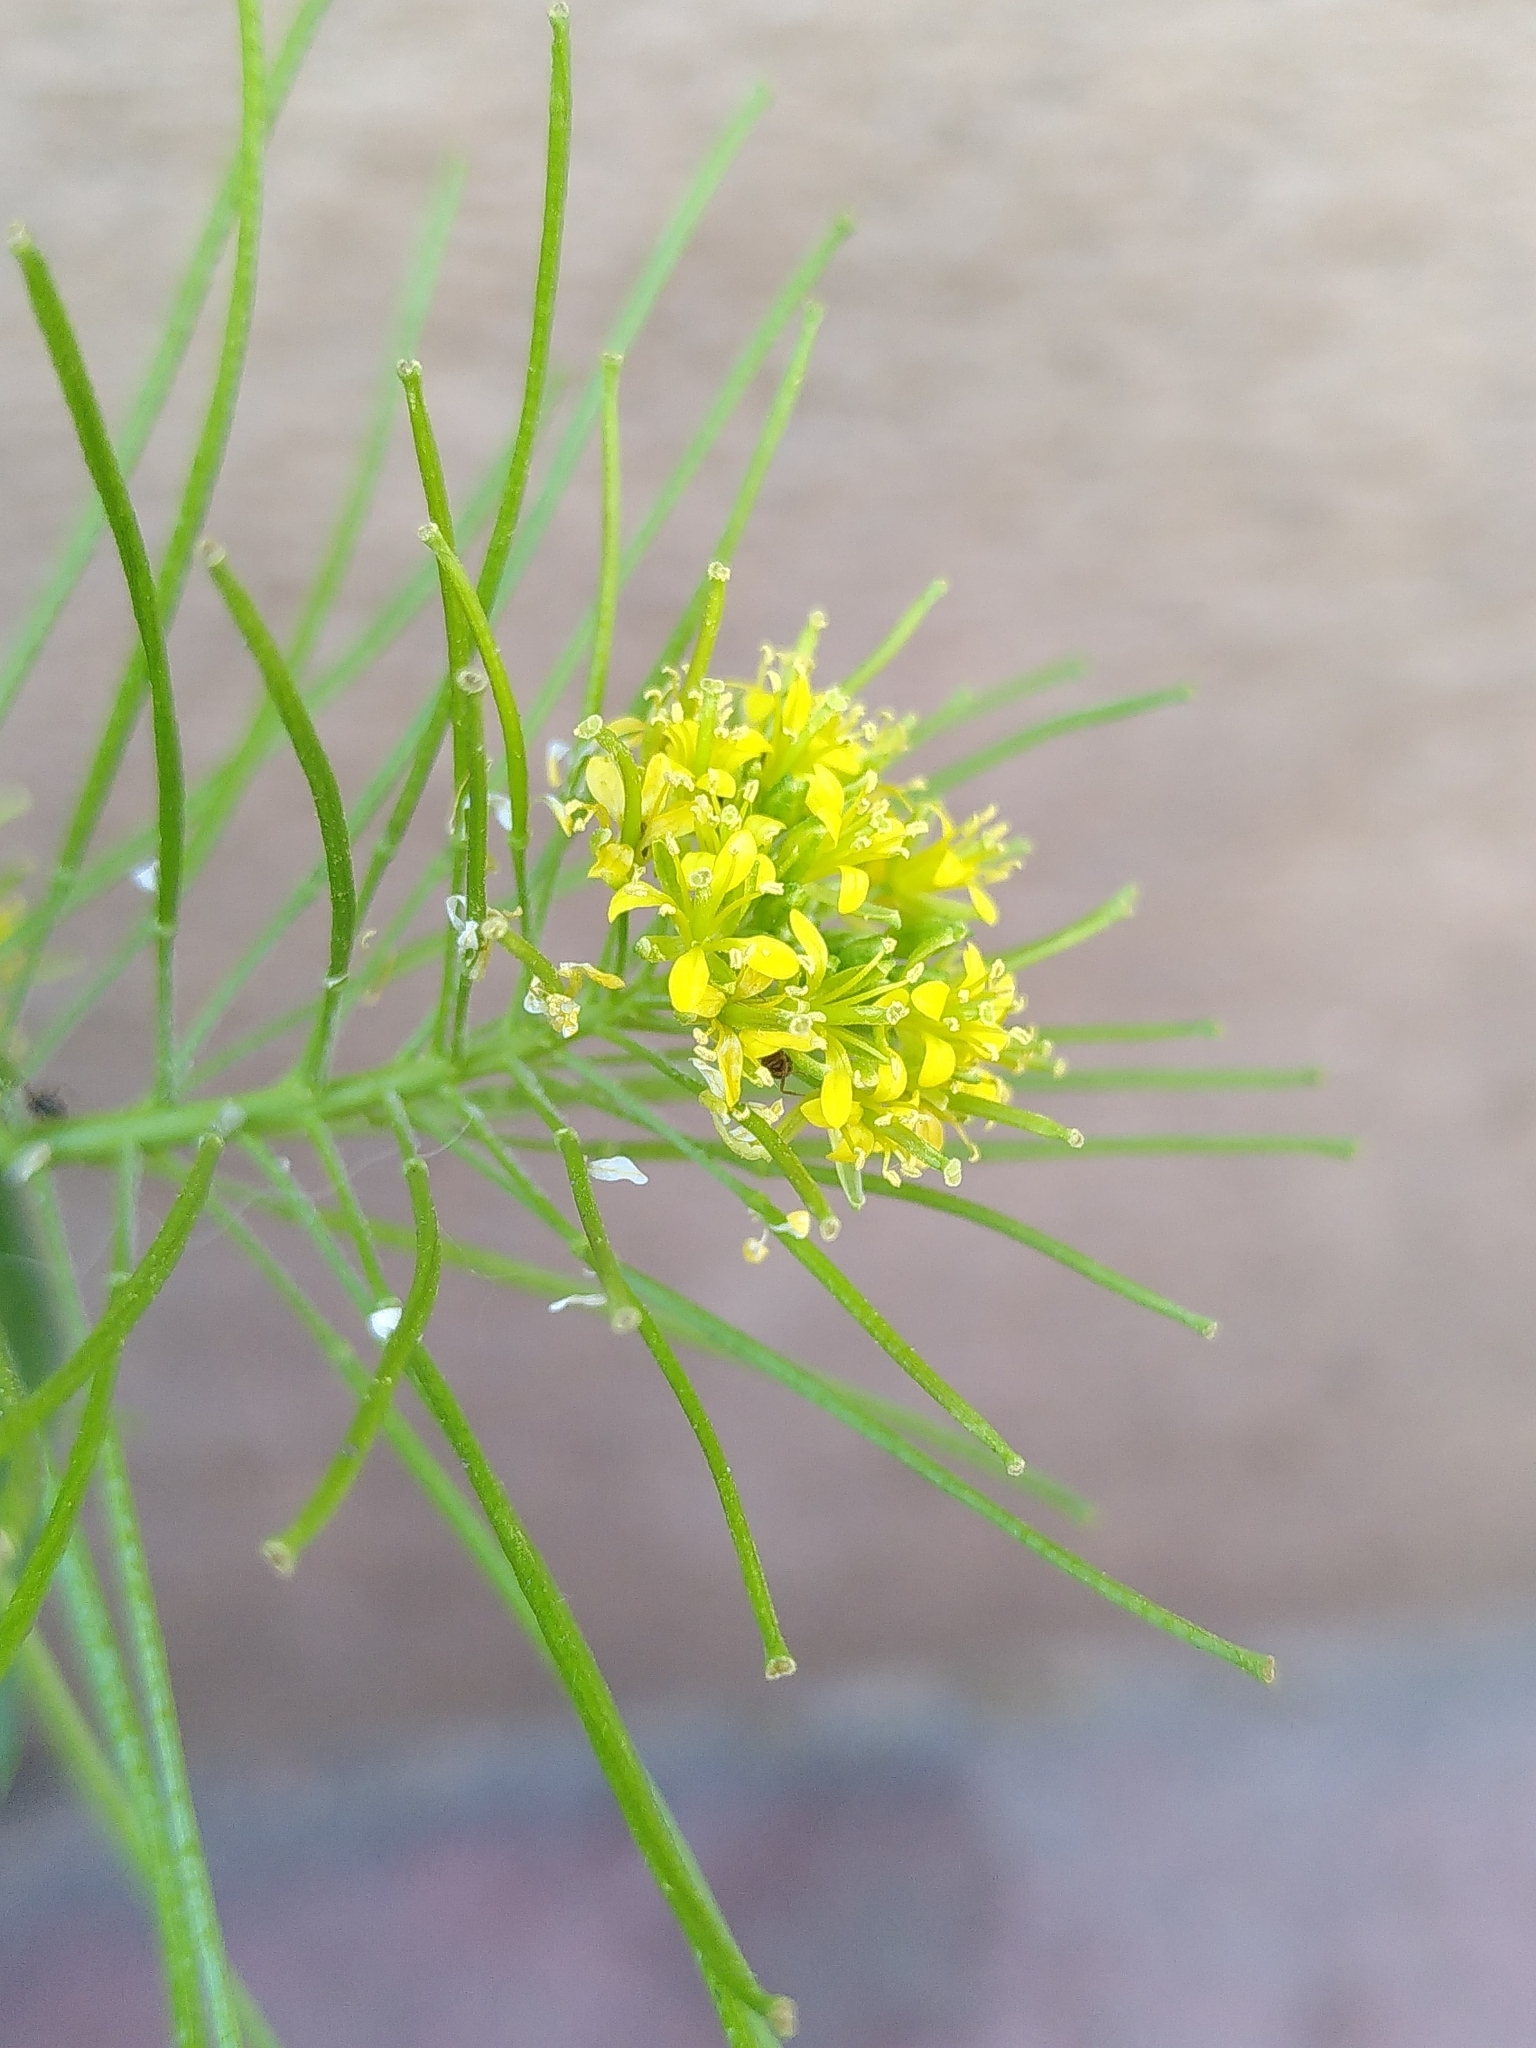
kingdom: Plantae
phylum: Tracheophyta
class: Magnoliopsida
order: Brassicales
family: Brassicaceae
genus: Sisymbrium
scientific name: Sisymbrium irio
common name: London rocket
